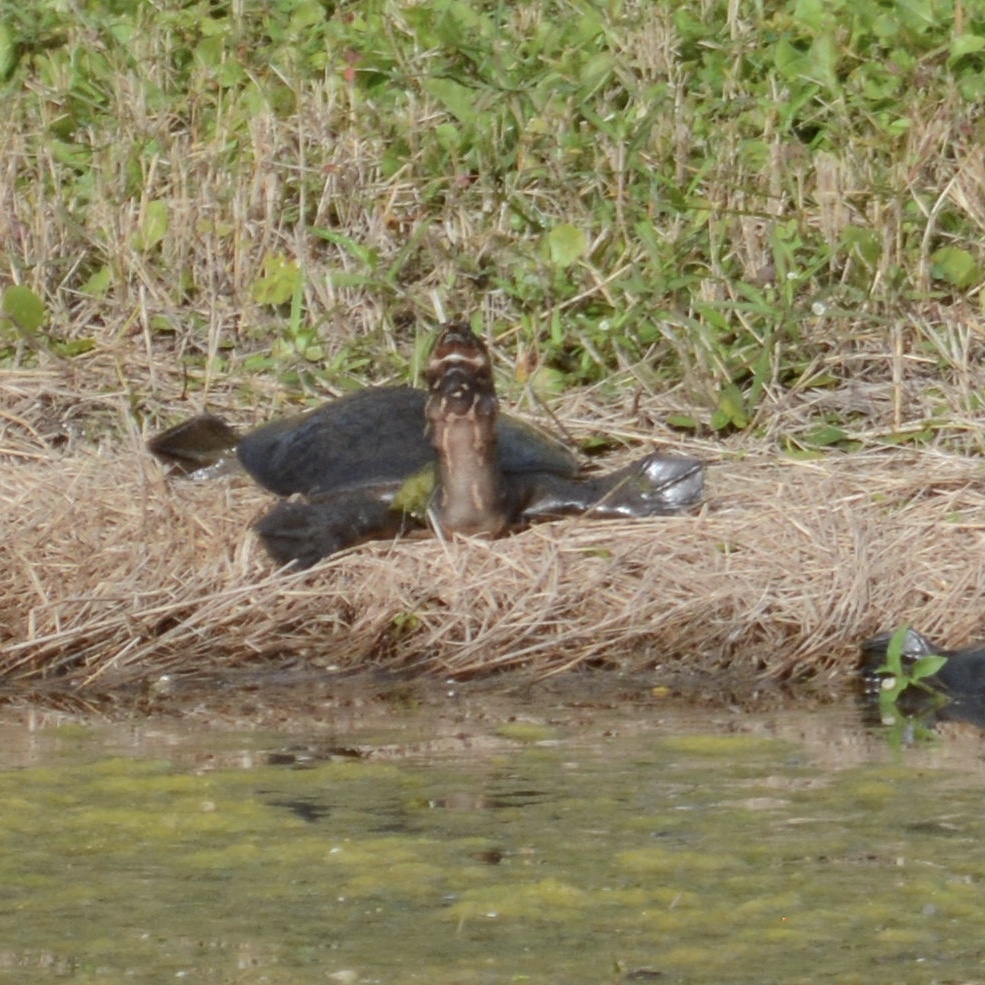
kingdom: Animalia
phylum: Chordata
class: Testudines
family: Trionychidae
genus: Apalone
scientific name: Apalone ferox
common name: Florida softshell turtle
